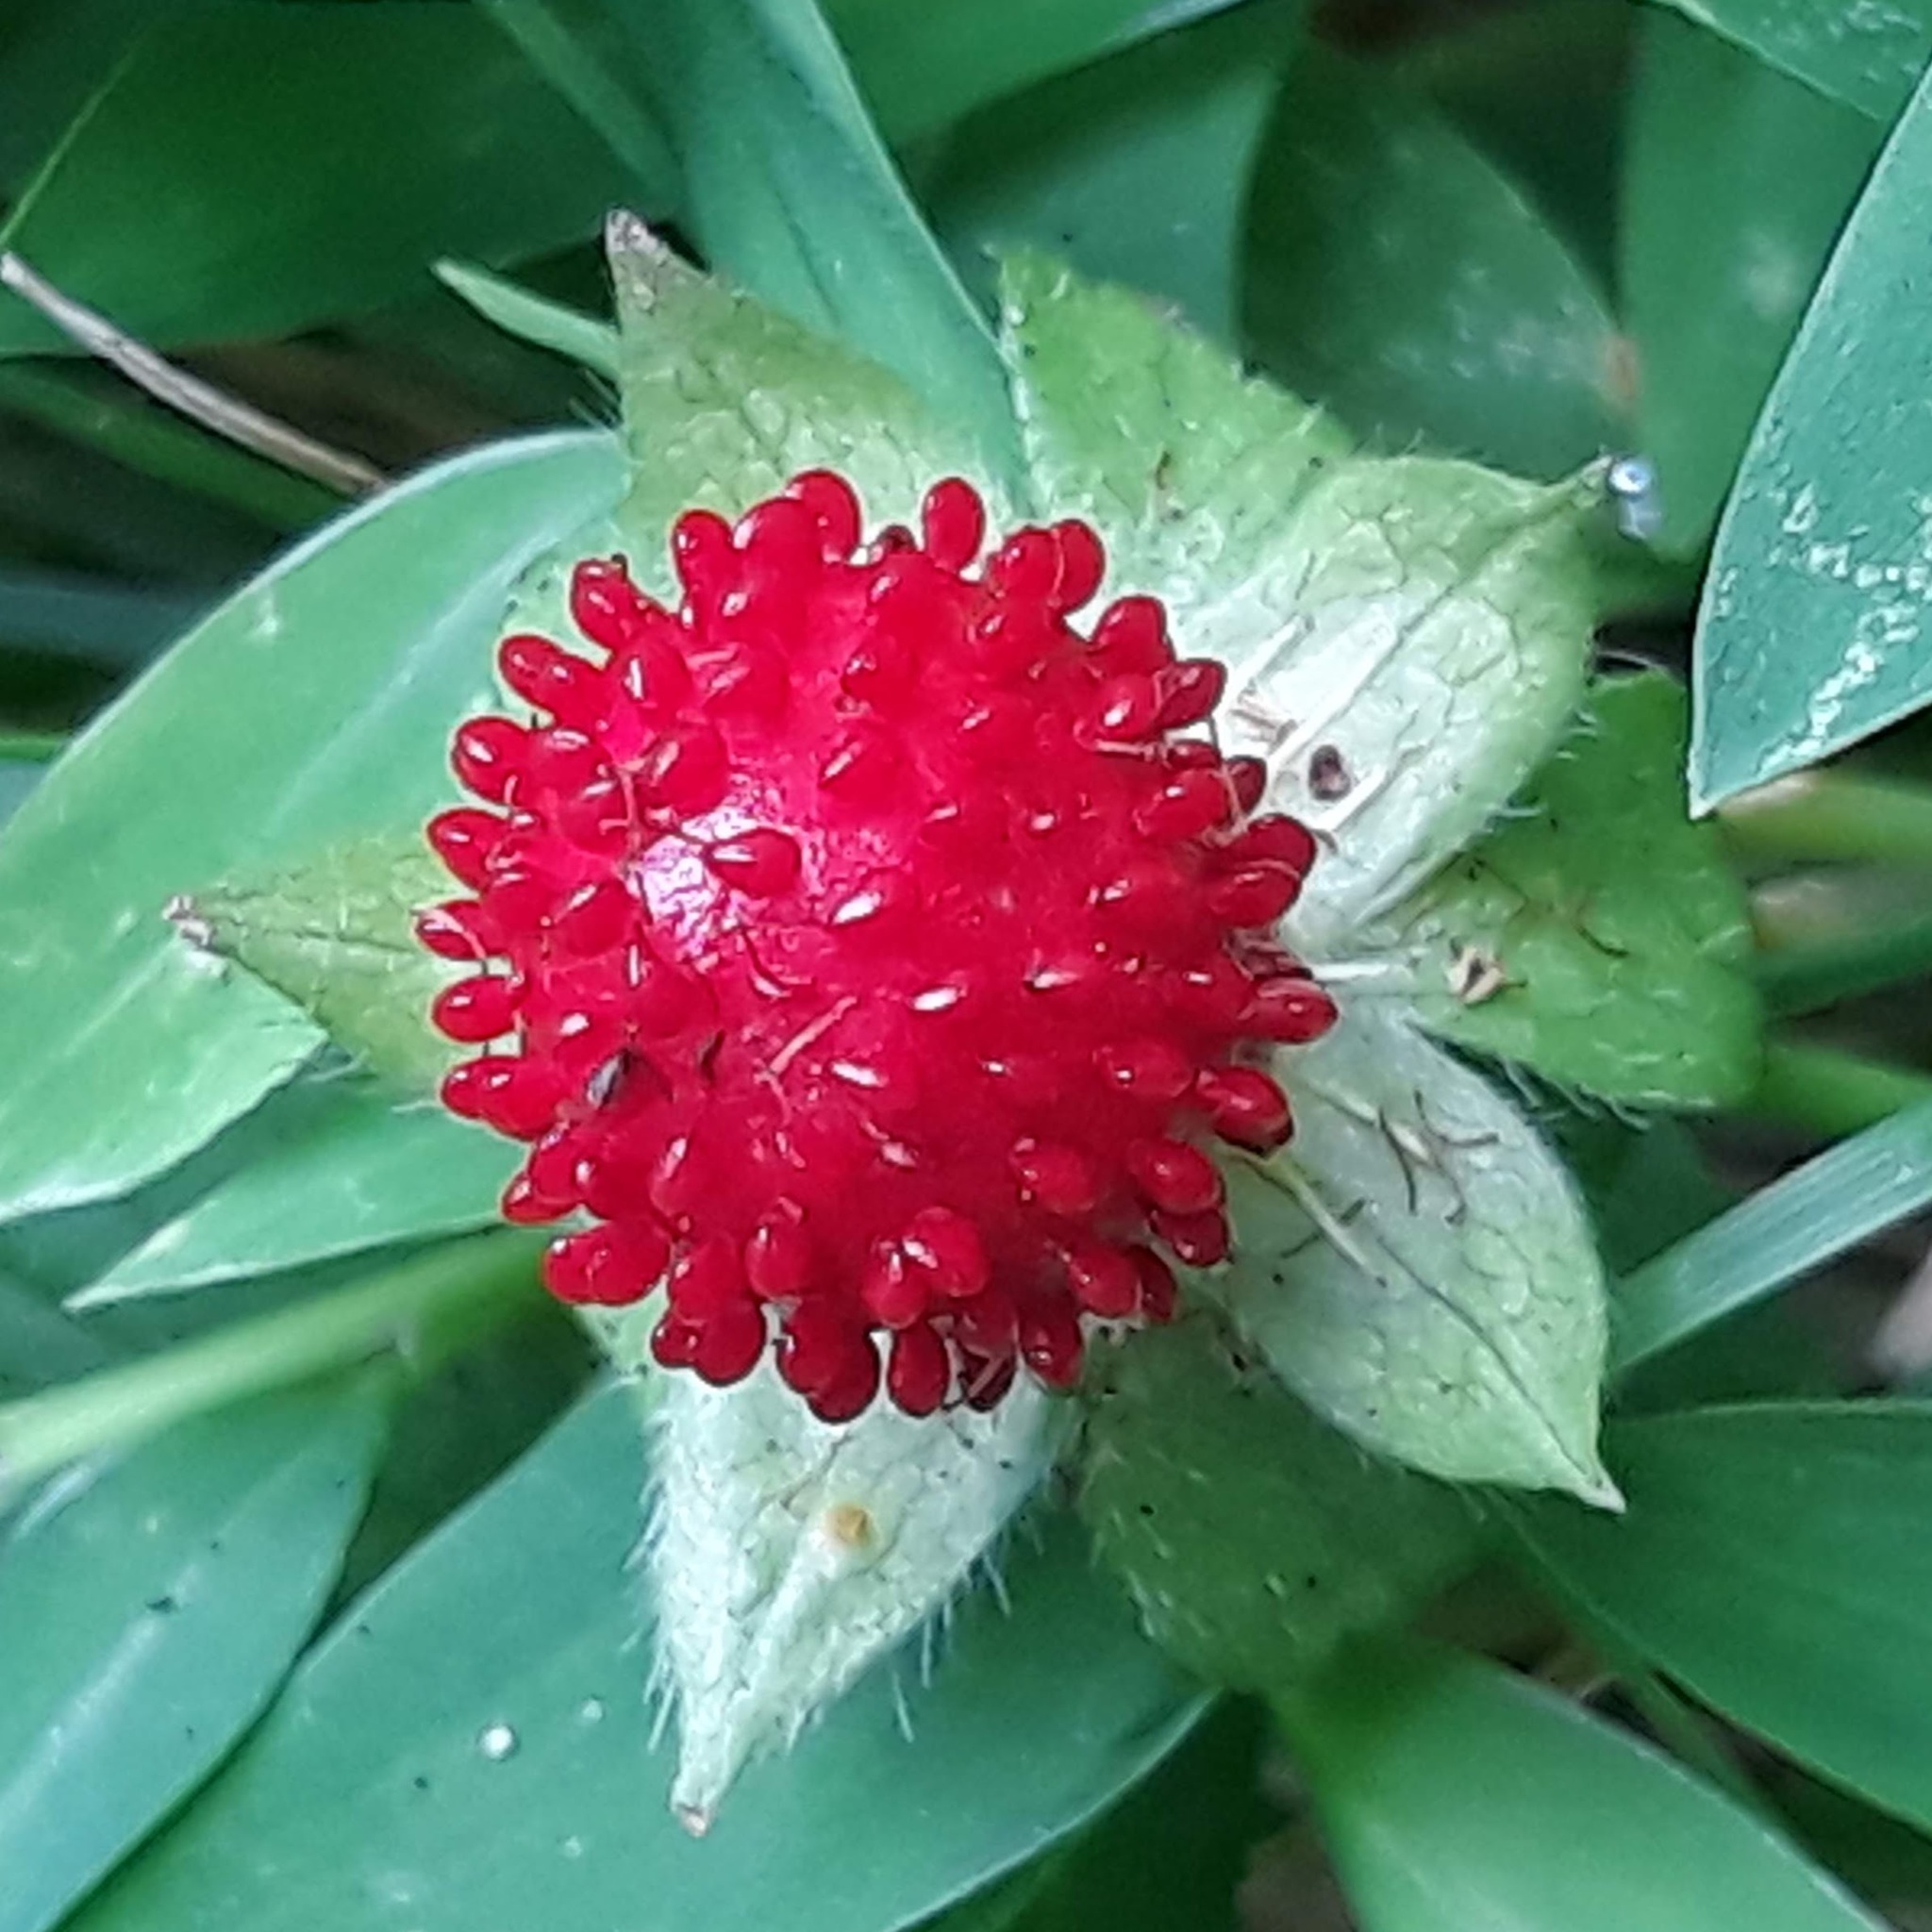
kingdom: Plantae
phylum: Tracheophyta
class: Magnoliopsida
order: Rosales
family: Rosaceae
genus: Potentilla
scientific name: Potentilla indica
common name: Yellow-flowered strawberry
